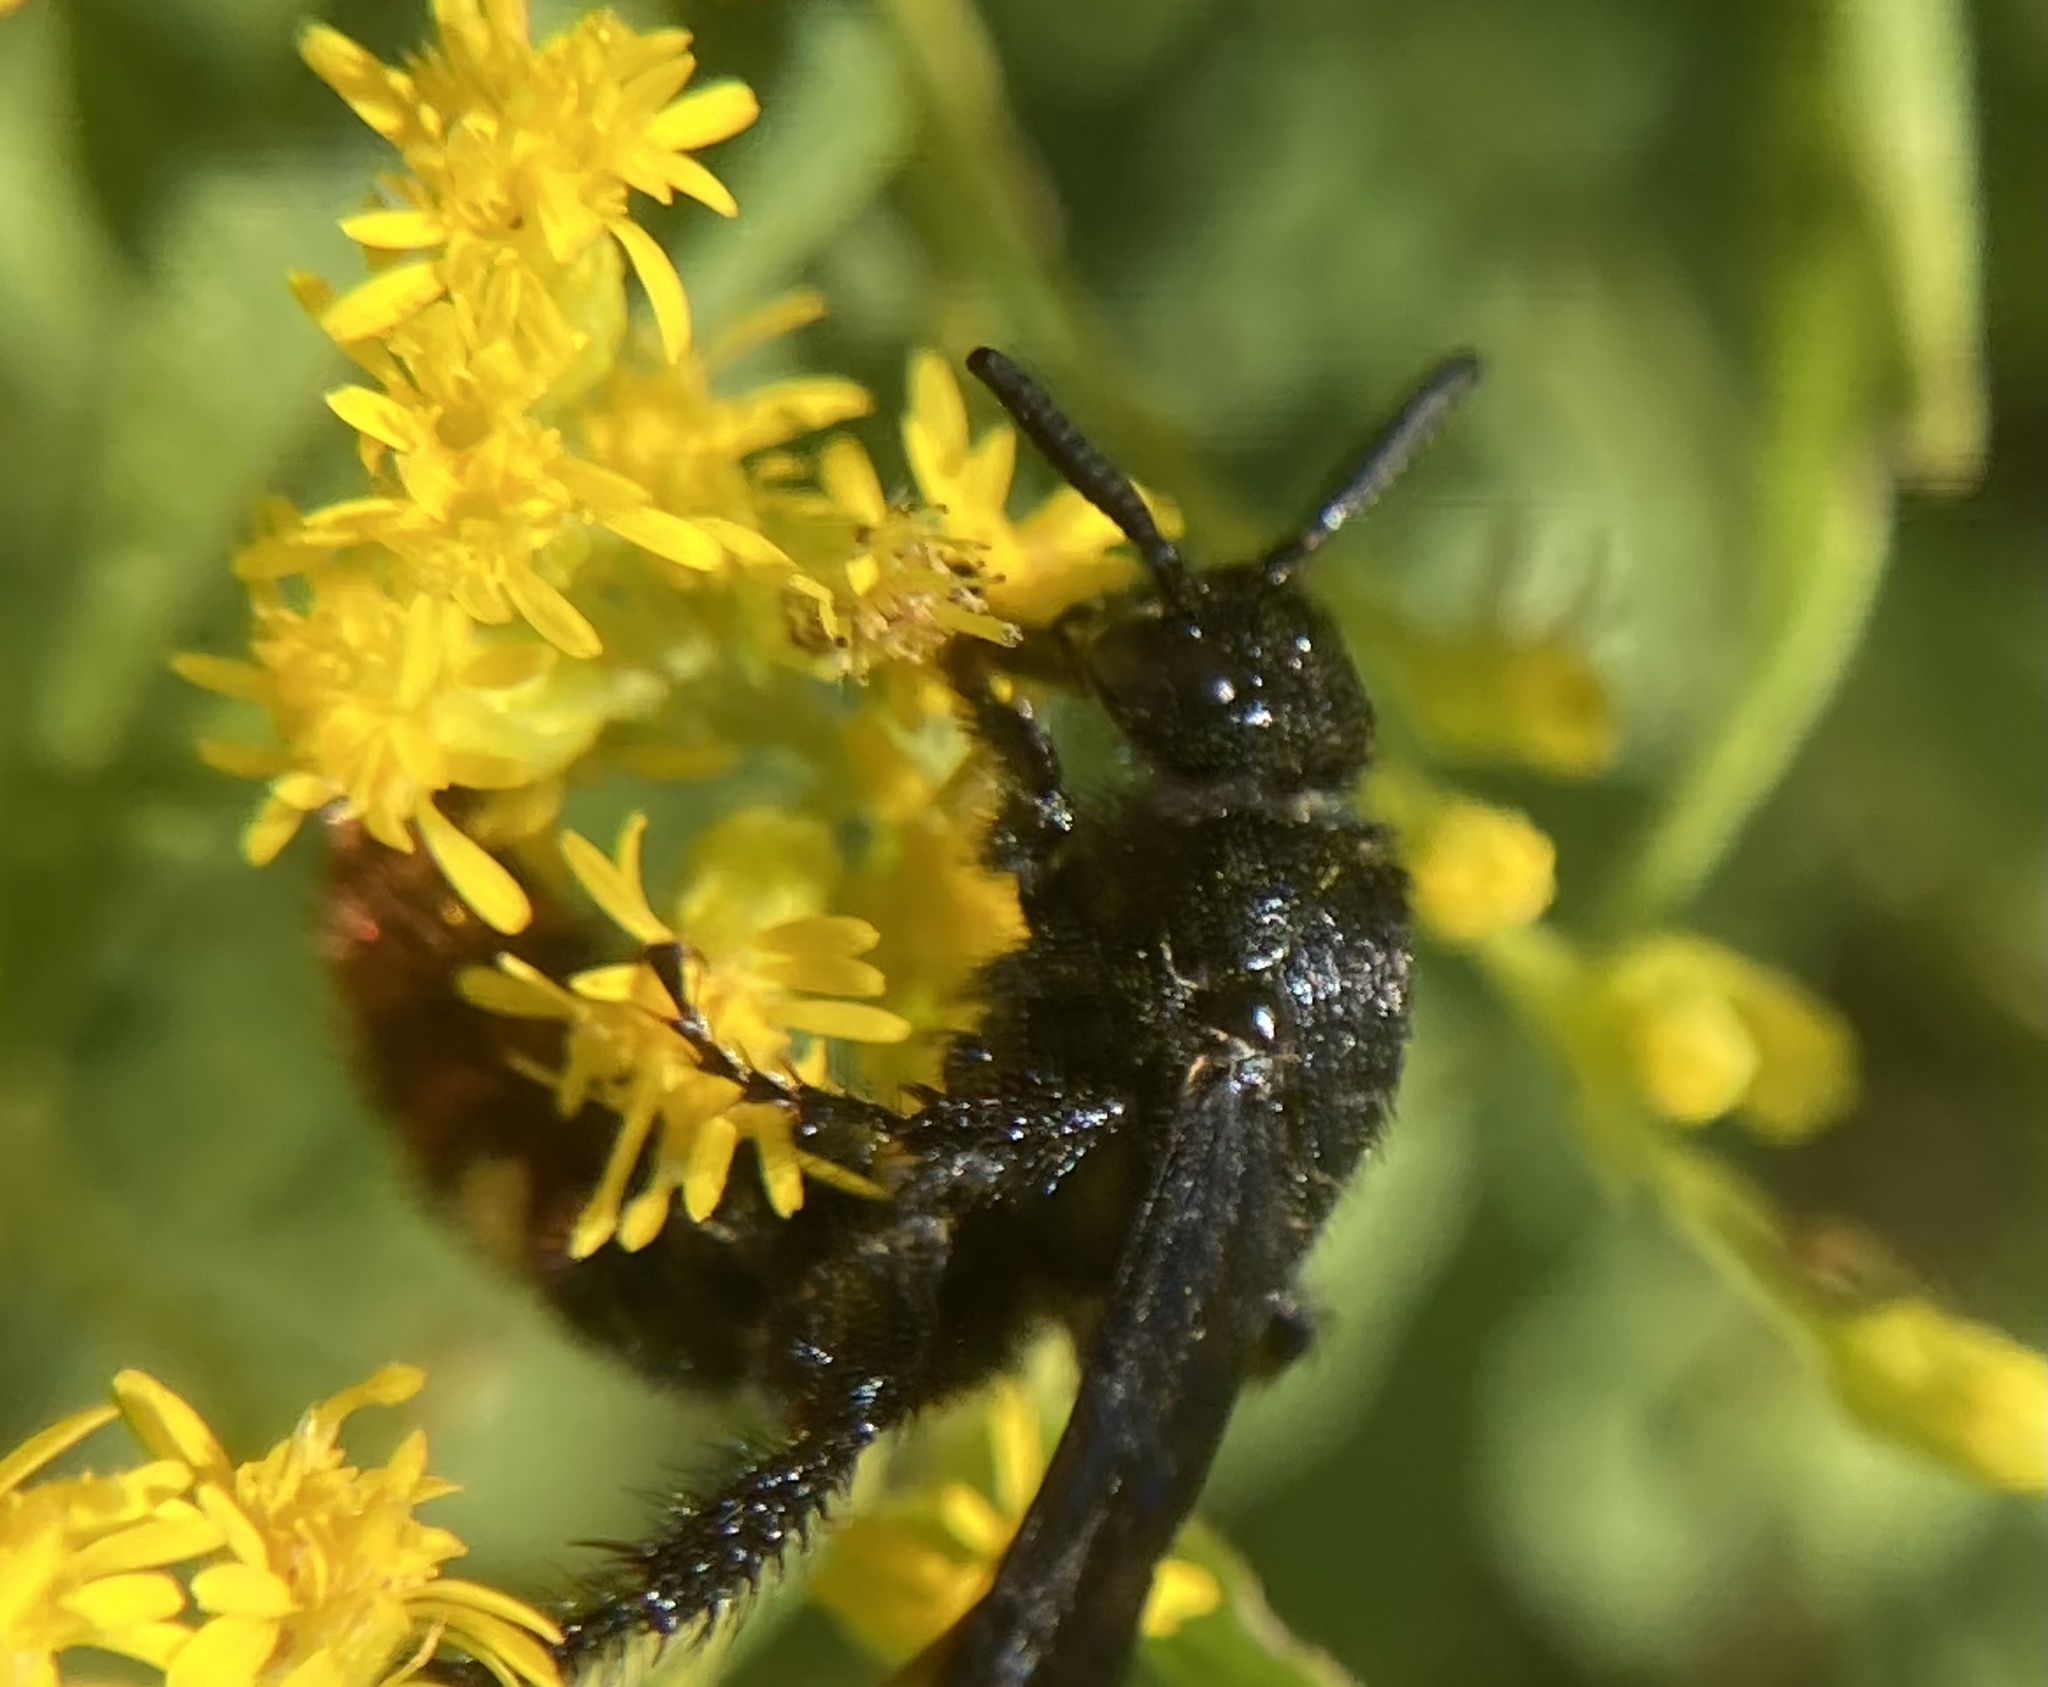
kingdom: Animalia
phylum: Arthropoda
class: Insecta
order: Hymenoptera
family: Scoliidae
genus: Scolia
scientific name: Scolia dubia
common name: Blue-winged scoliid wasp
